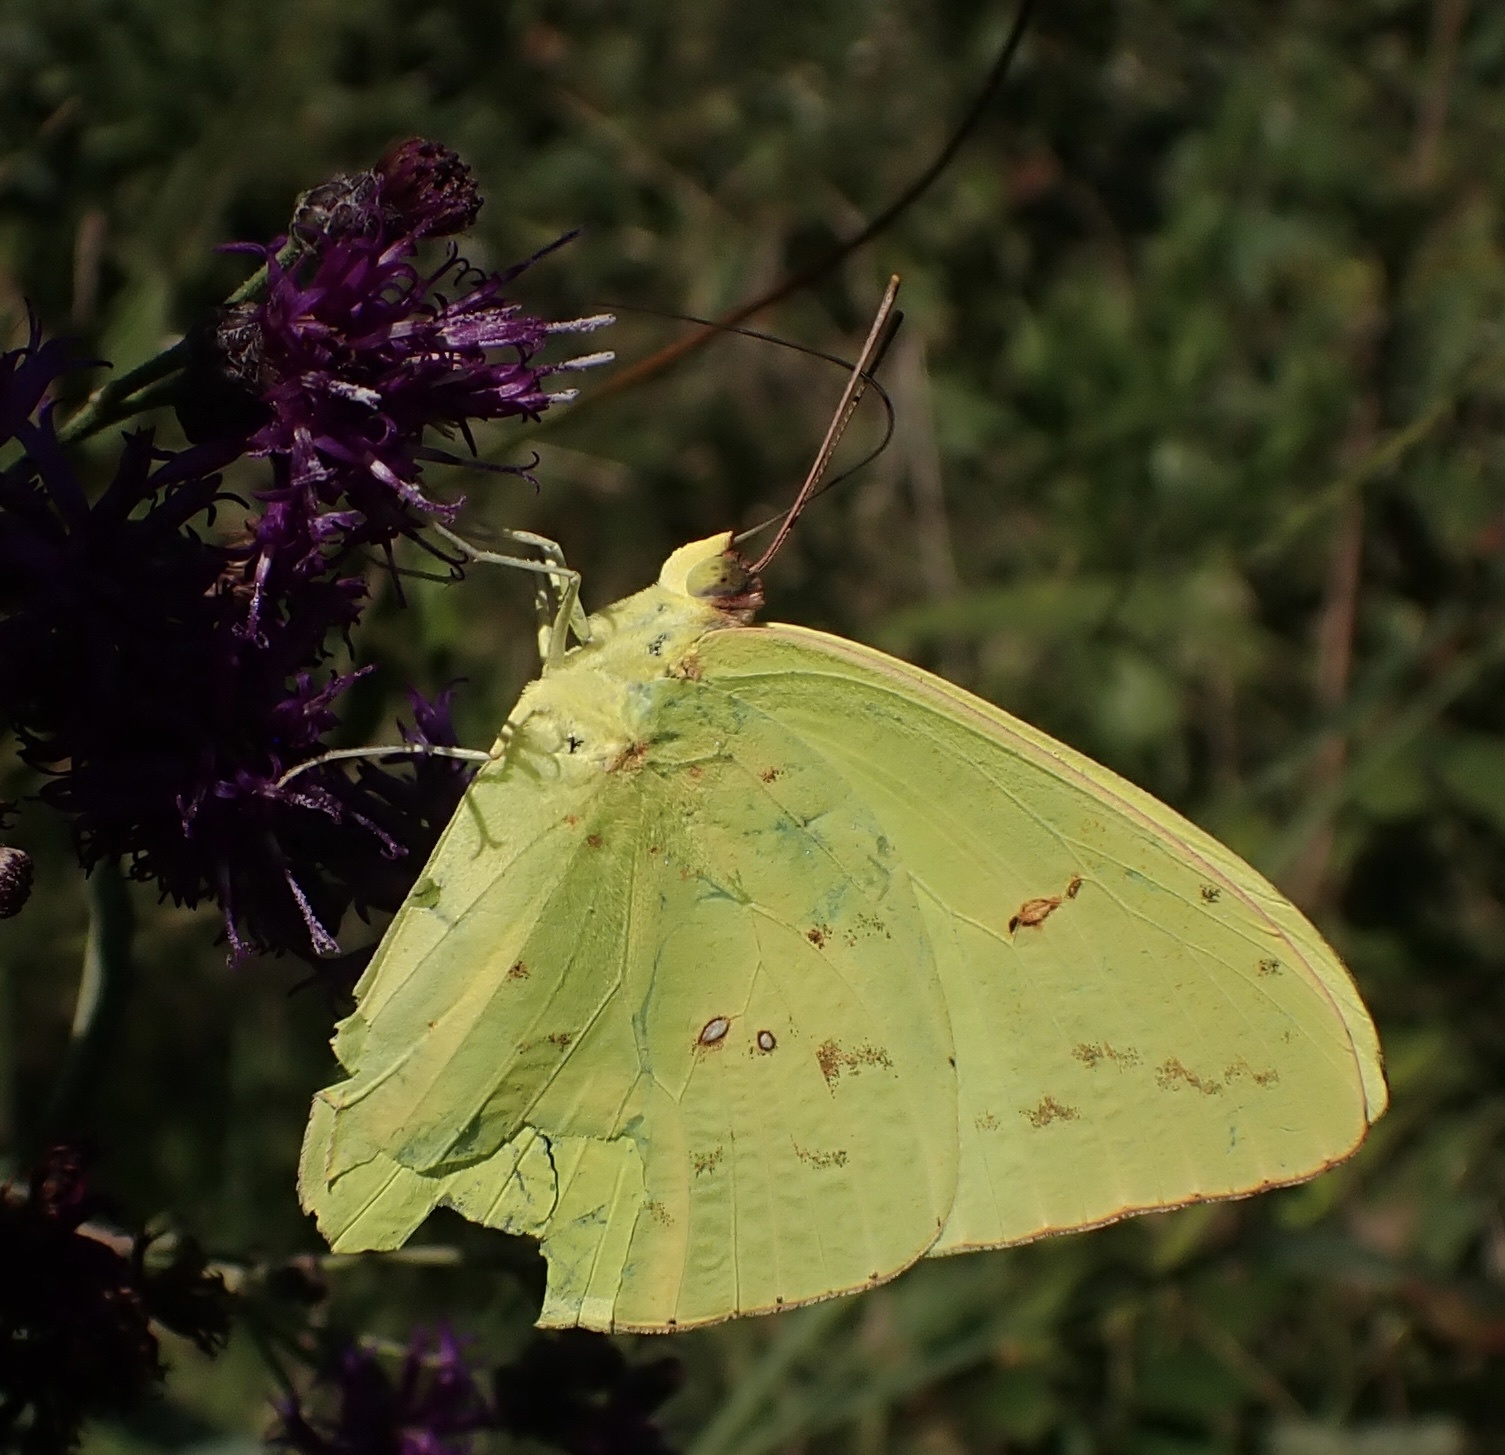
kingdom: Animalia
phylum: Arthropoda
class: Insecta
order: Lepidoptera
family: Pieridae
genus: Phoebis
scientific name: Phoebis sennae
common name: Cloudless sulphur
